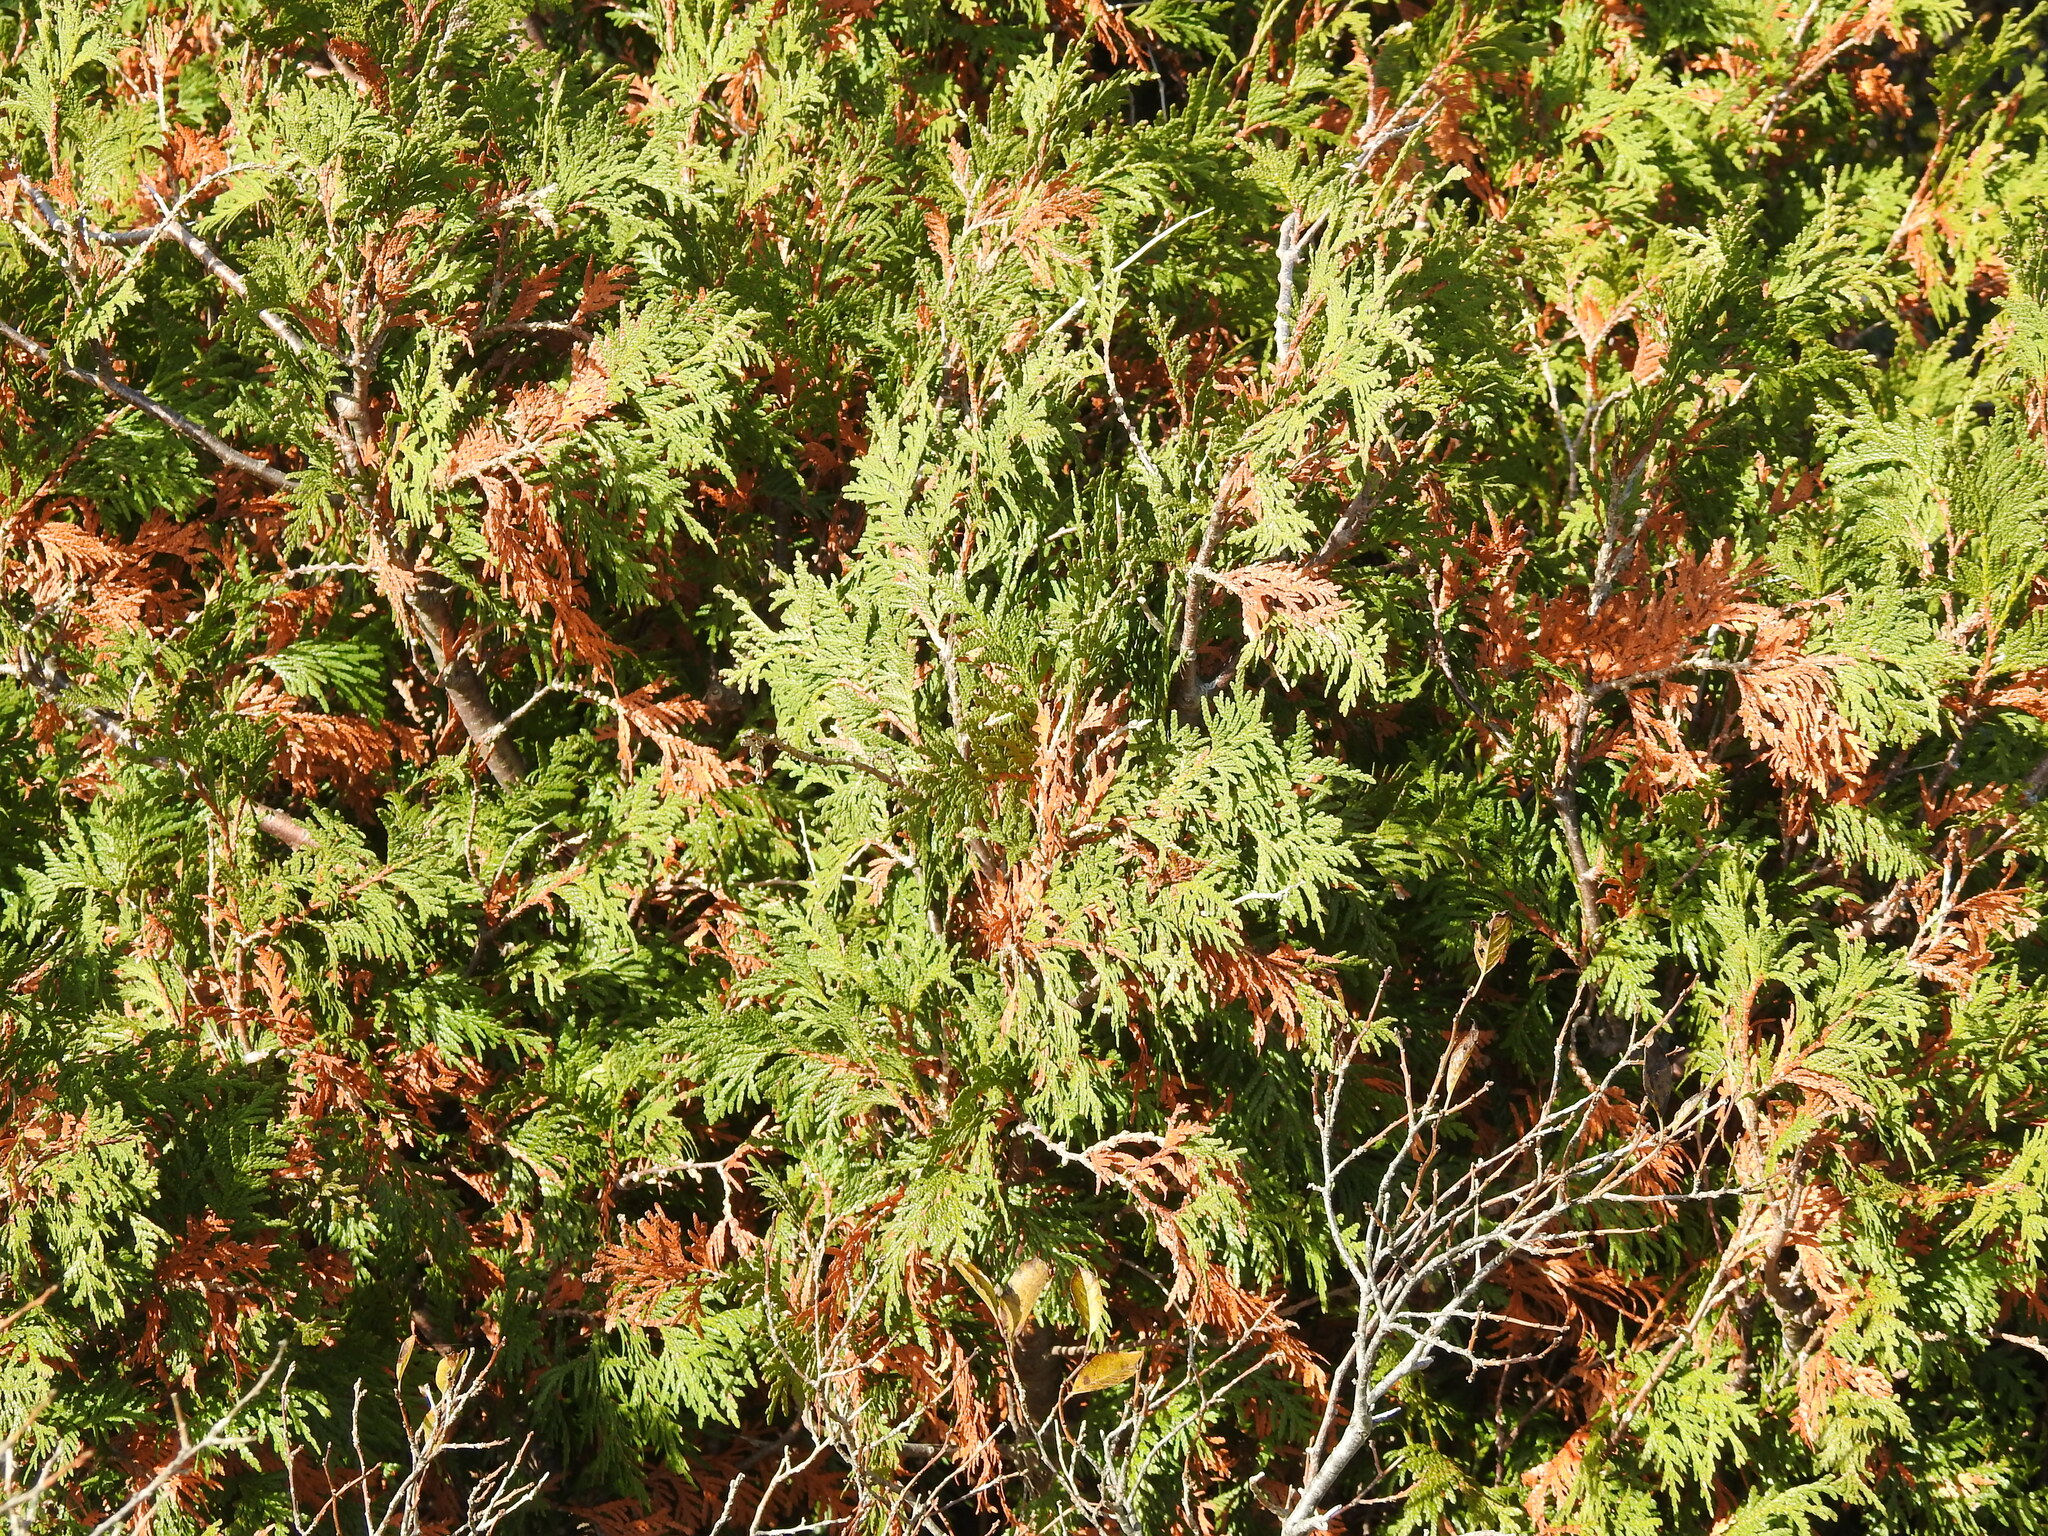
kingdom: Plantae
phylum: Tracheophyta
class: Pinopsida
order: Pinales
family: Cupressaceae
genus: Thuja
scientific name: Thuja occidentalis
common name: Northern white-cedar
